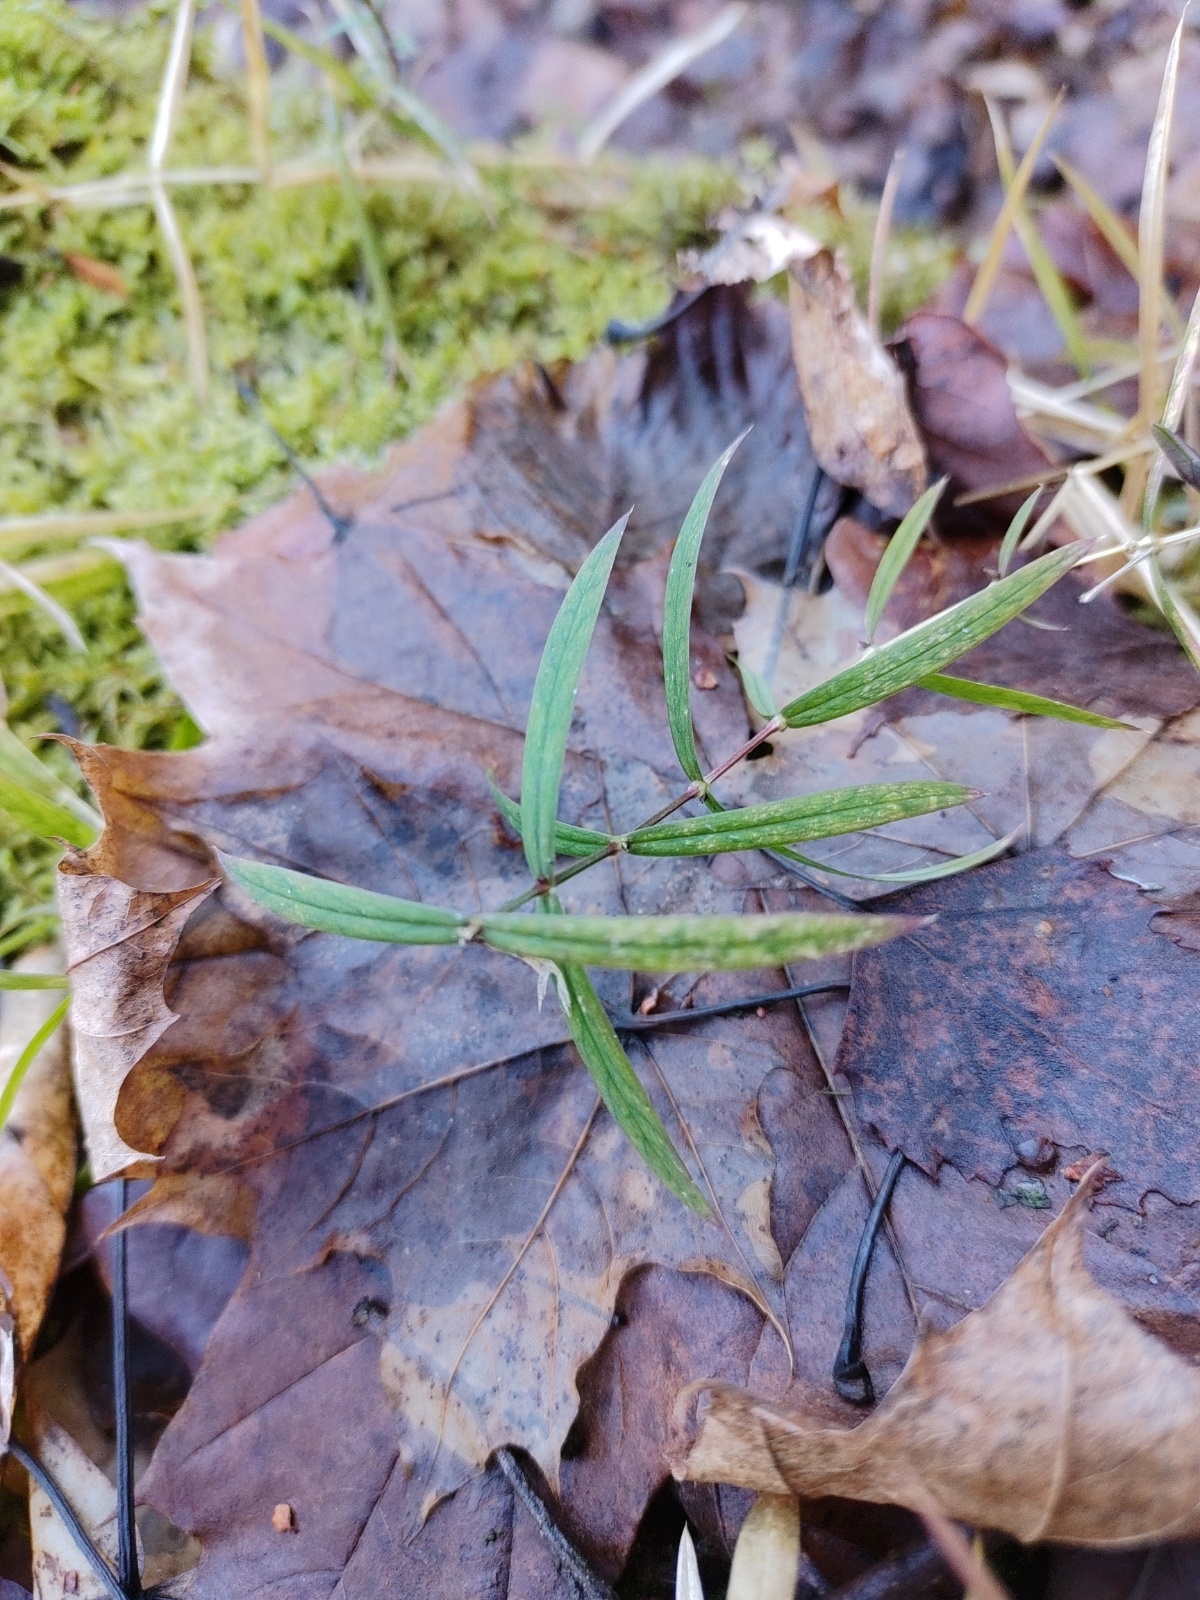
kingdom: Plantae
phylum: Tracheophyta
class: Magnoliopsida
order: Caryophyllales
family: Caryophyllaceae
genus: Rabelera
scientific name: Rabelera holostea
